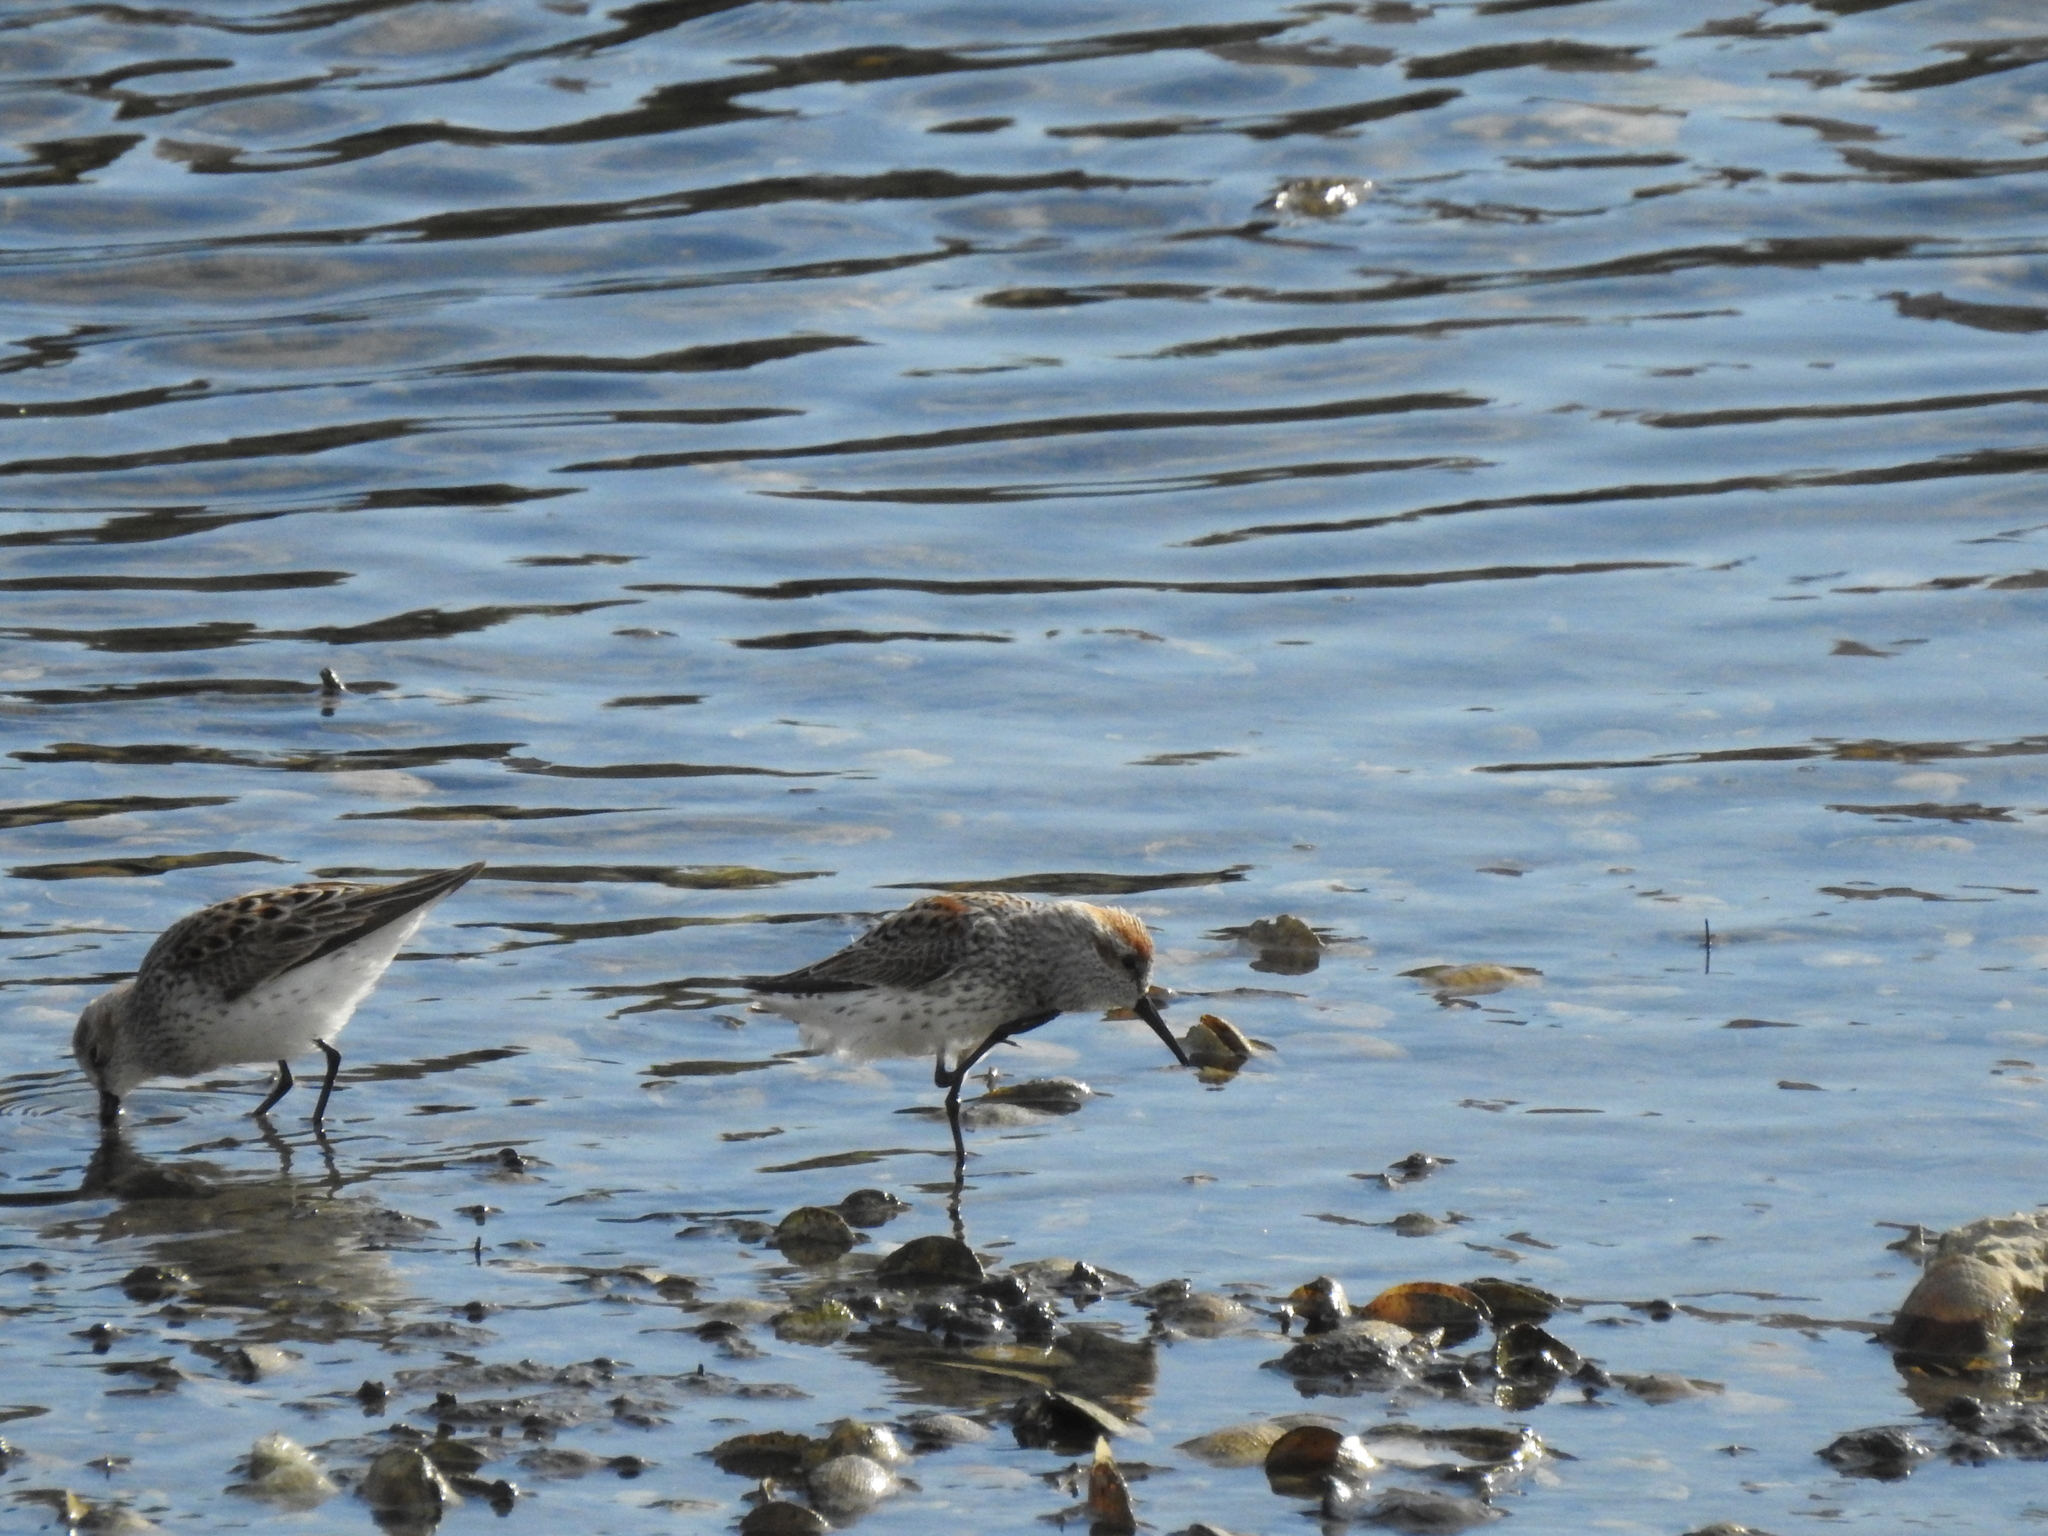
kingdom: Animalia
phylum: Chordata
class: Aves
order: Charadriiformes
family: Scolopacidae
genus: Calidris
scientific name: Calidris mauri
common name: Western sandpiper
